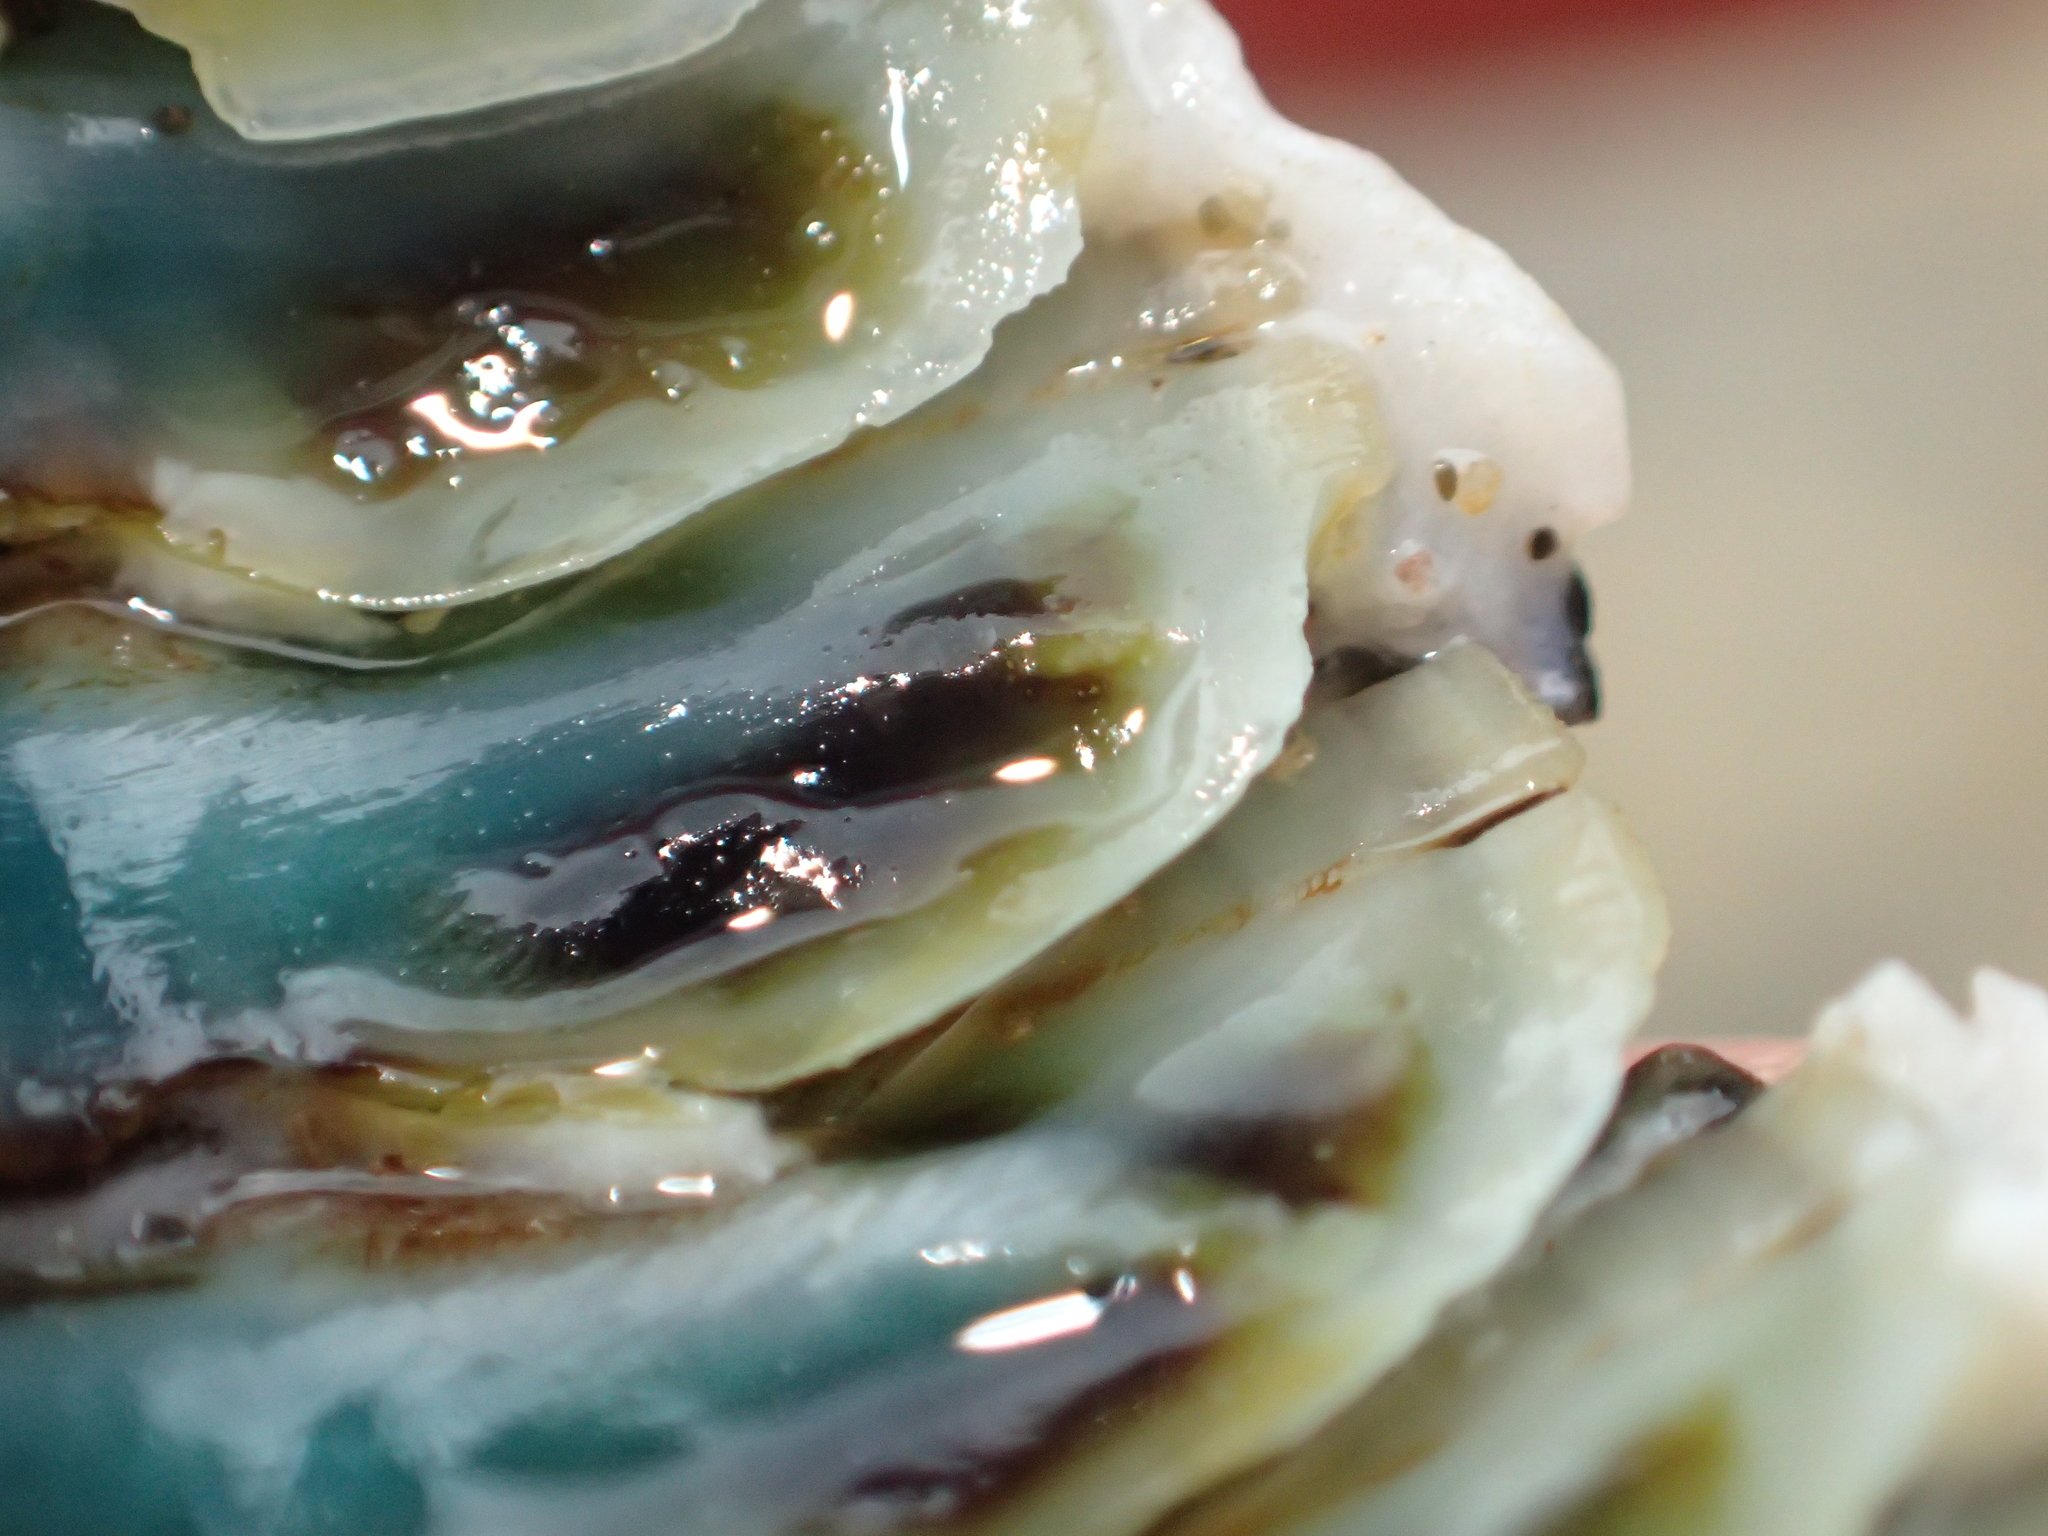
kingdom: Animalia
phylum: Mollusca
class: Polyplacophora
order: Chitonida
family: Chitonidae
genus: Sypharochiton
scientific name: Sypharochiton pelliserpentis
